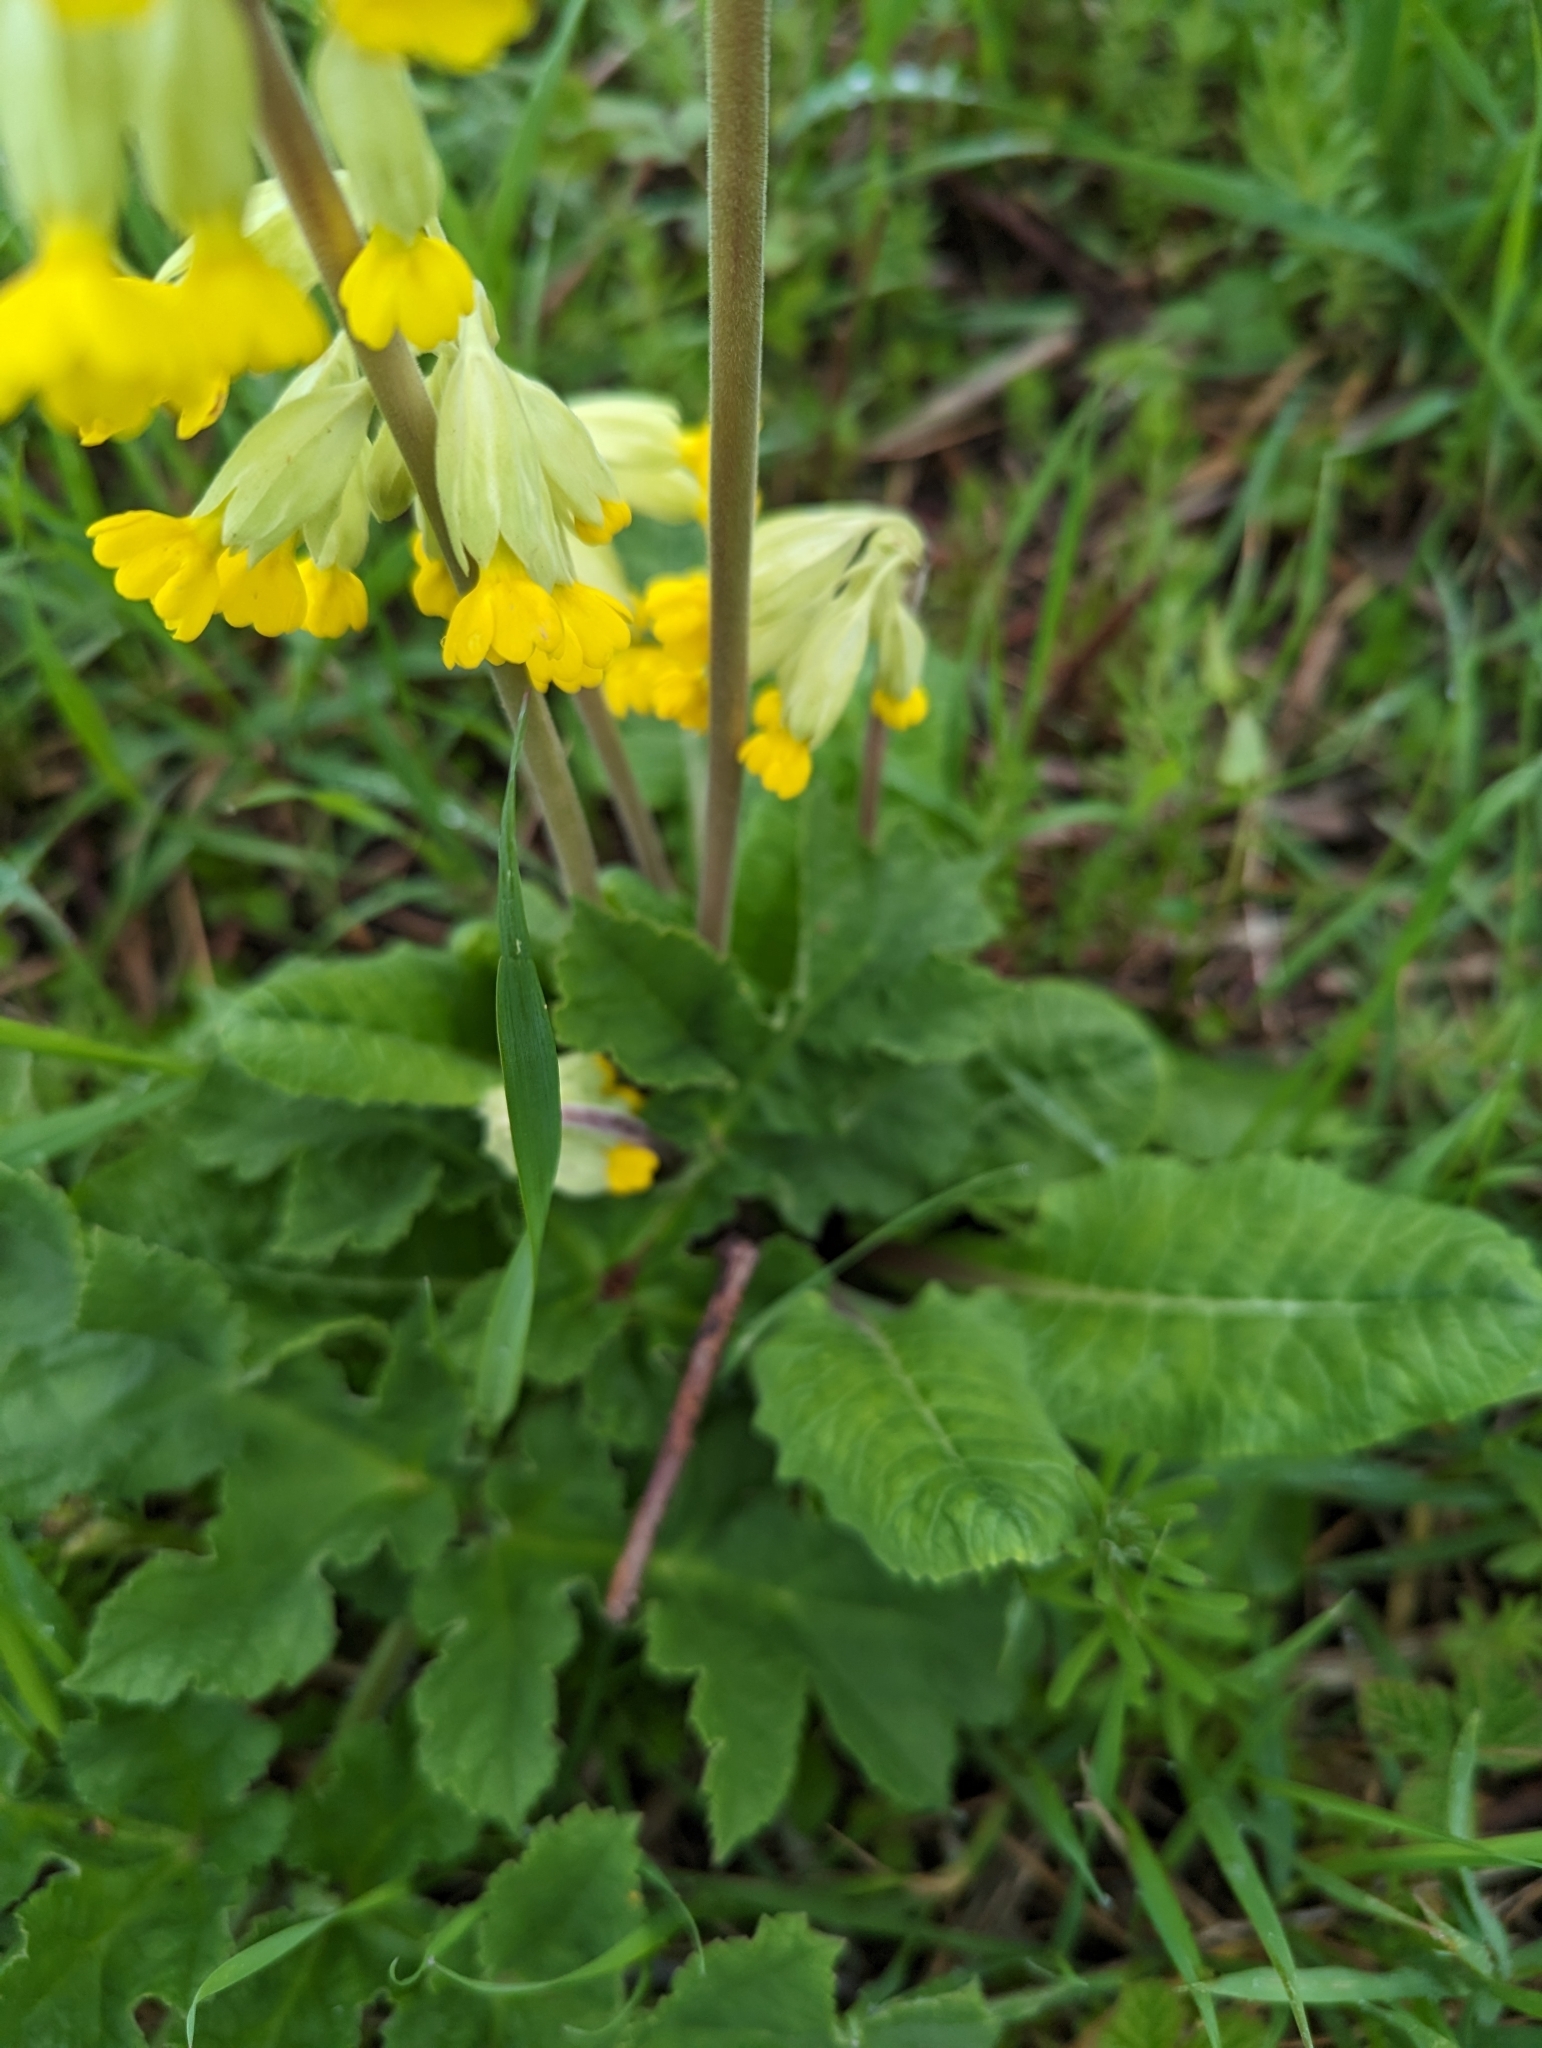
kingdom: Plantae
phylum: Tracheophyta
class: Magnoliopsida
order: Ericales
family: Primulaceae
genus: Primula
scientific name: Primula veris
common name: Cowslip
